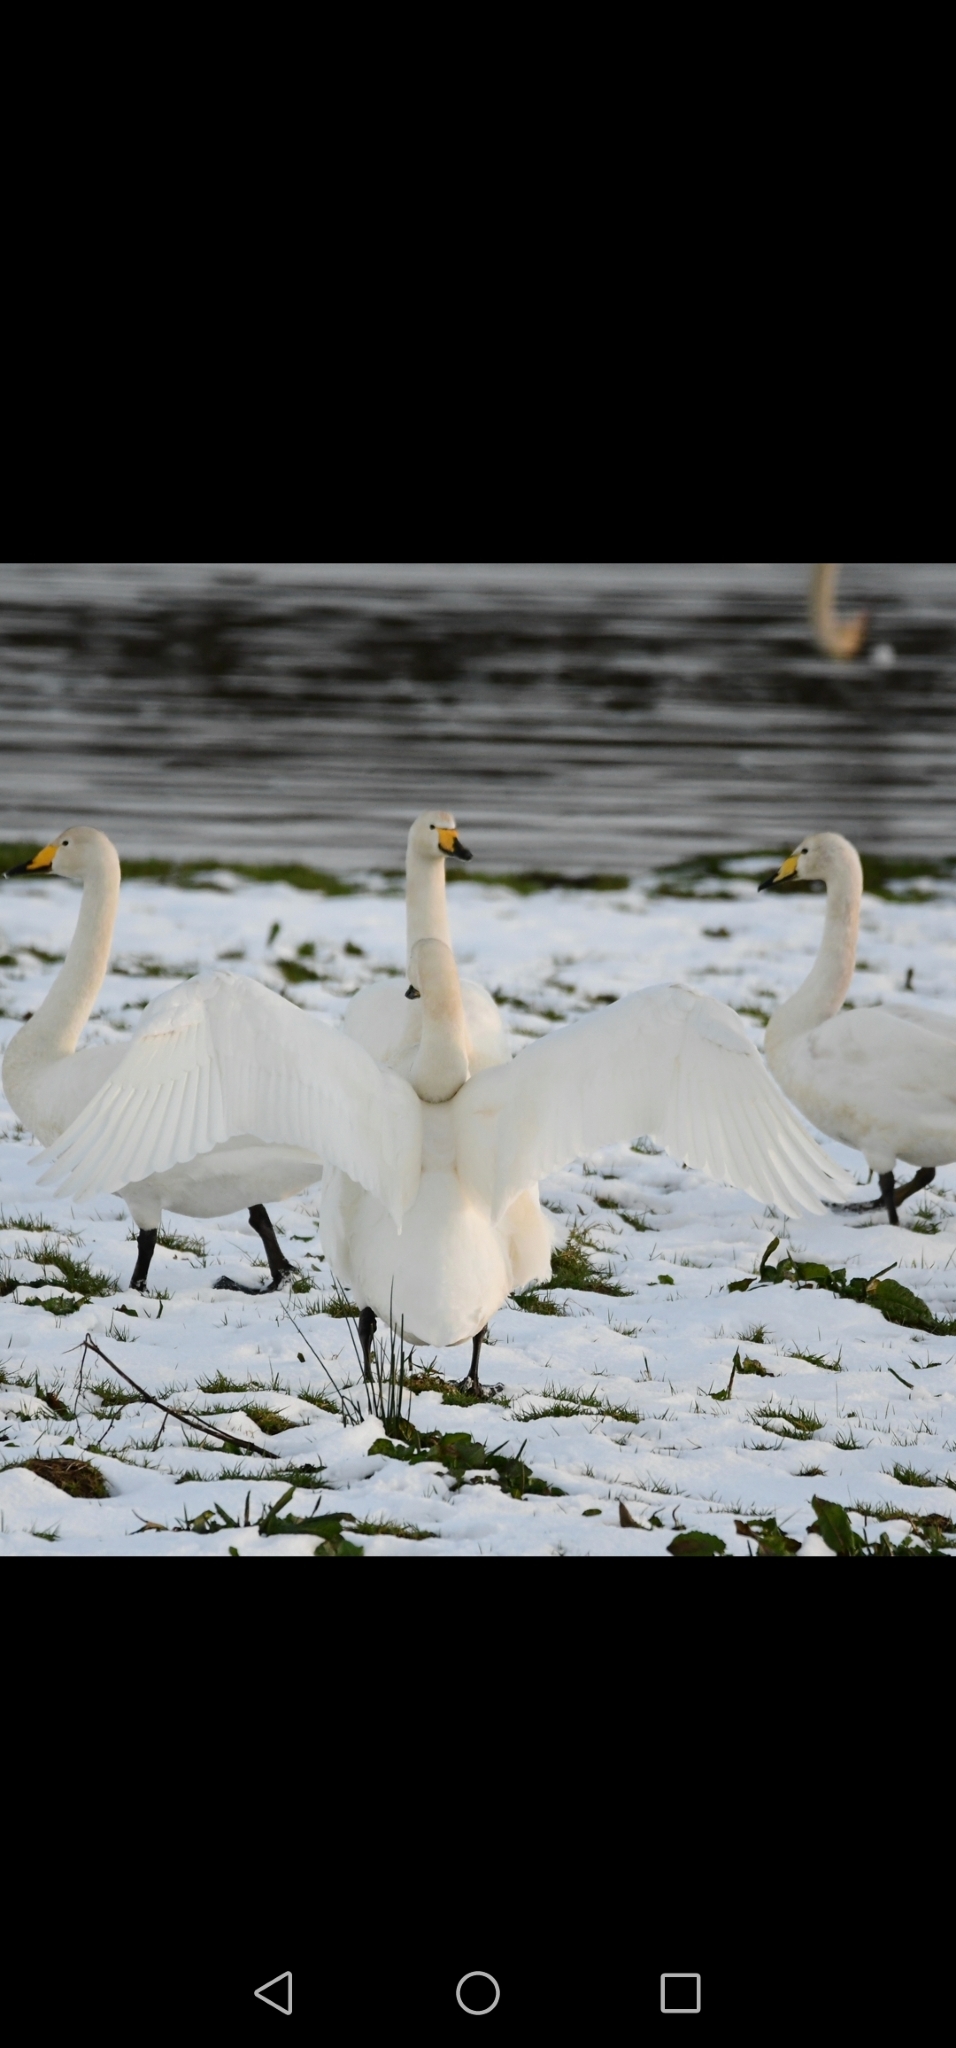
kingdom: Animalia
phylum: Chordata
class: Aves
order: Anseriformes
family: Anatidae
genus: Cygnus
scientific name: Cygnus cygnus
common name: Whooper swan
